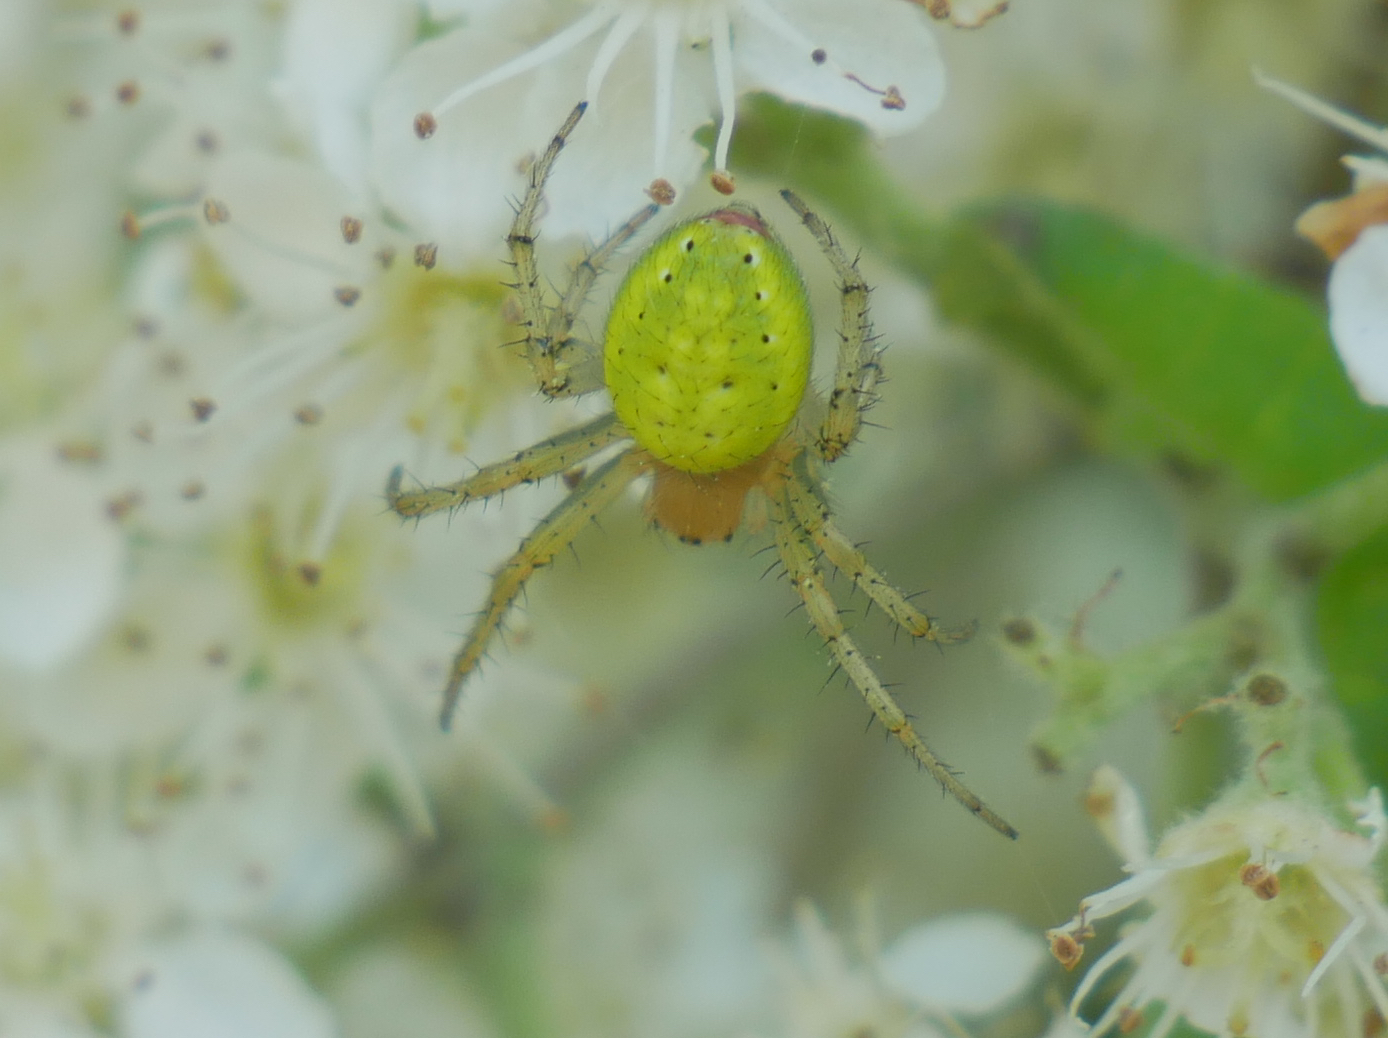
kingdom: Animalia
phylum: Arthropoda
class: Arachnida
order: Araneae
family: Araneidae
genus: Araniella
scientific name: Araniella
